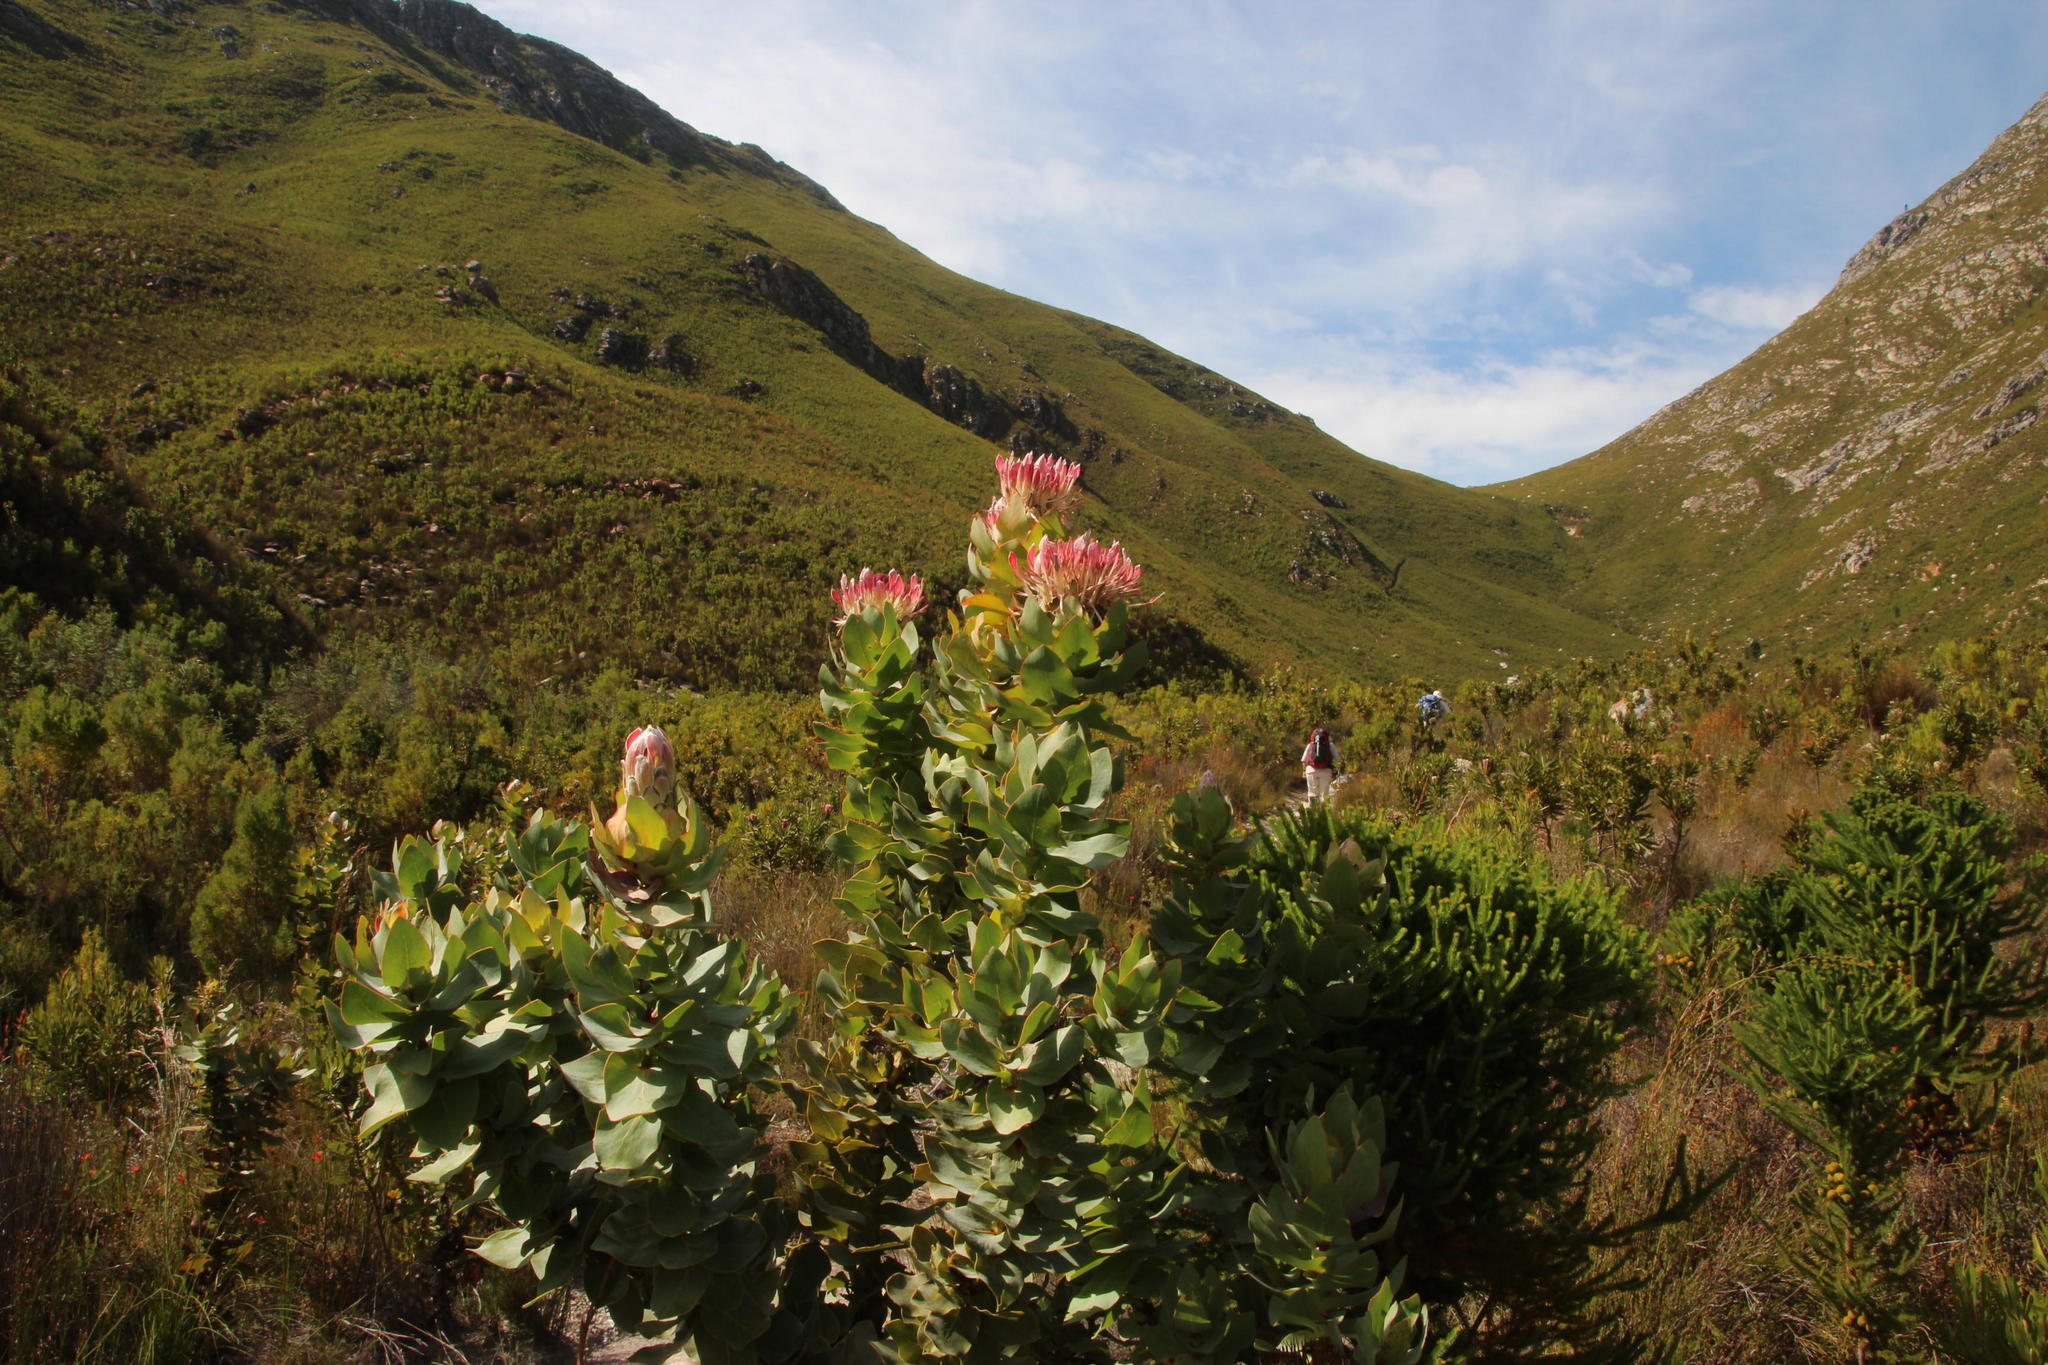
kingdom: Plantae
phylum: Tracheophyta
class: Magnoliopsida
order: Proteales
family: Proteaceae
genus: Protea
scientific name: Protea eximia
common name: Broad-leaved sugarbush
